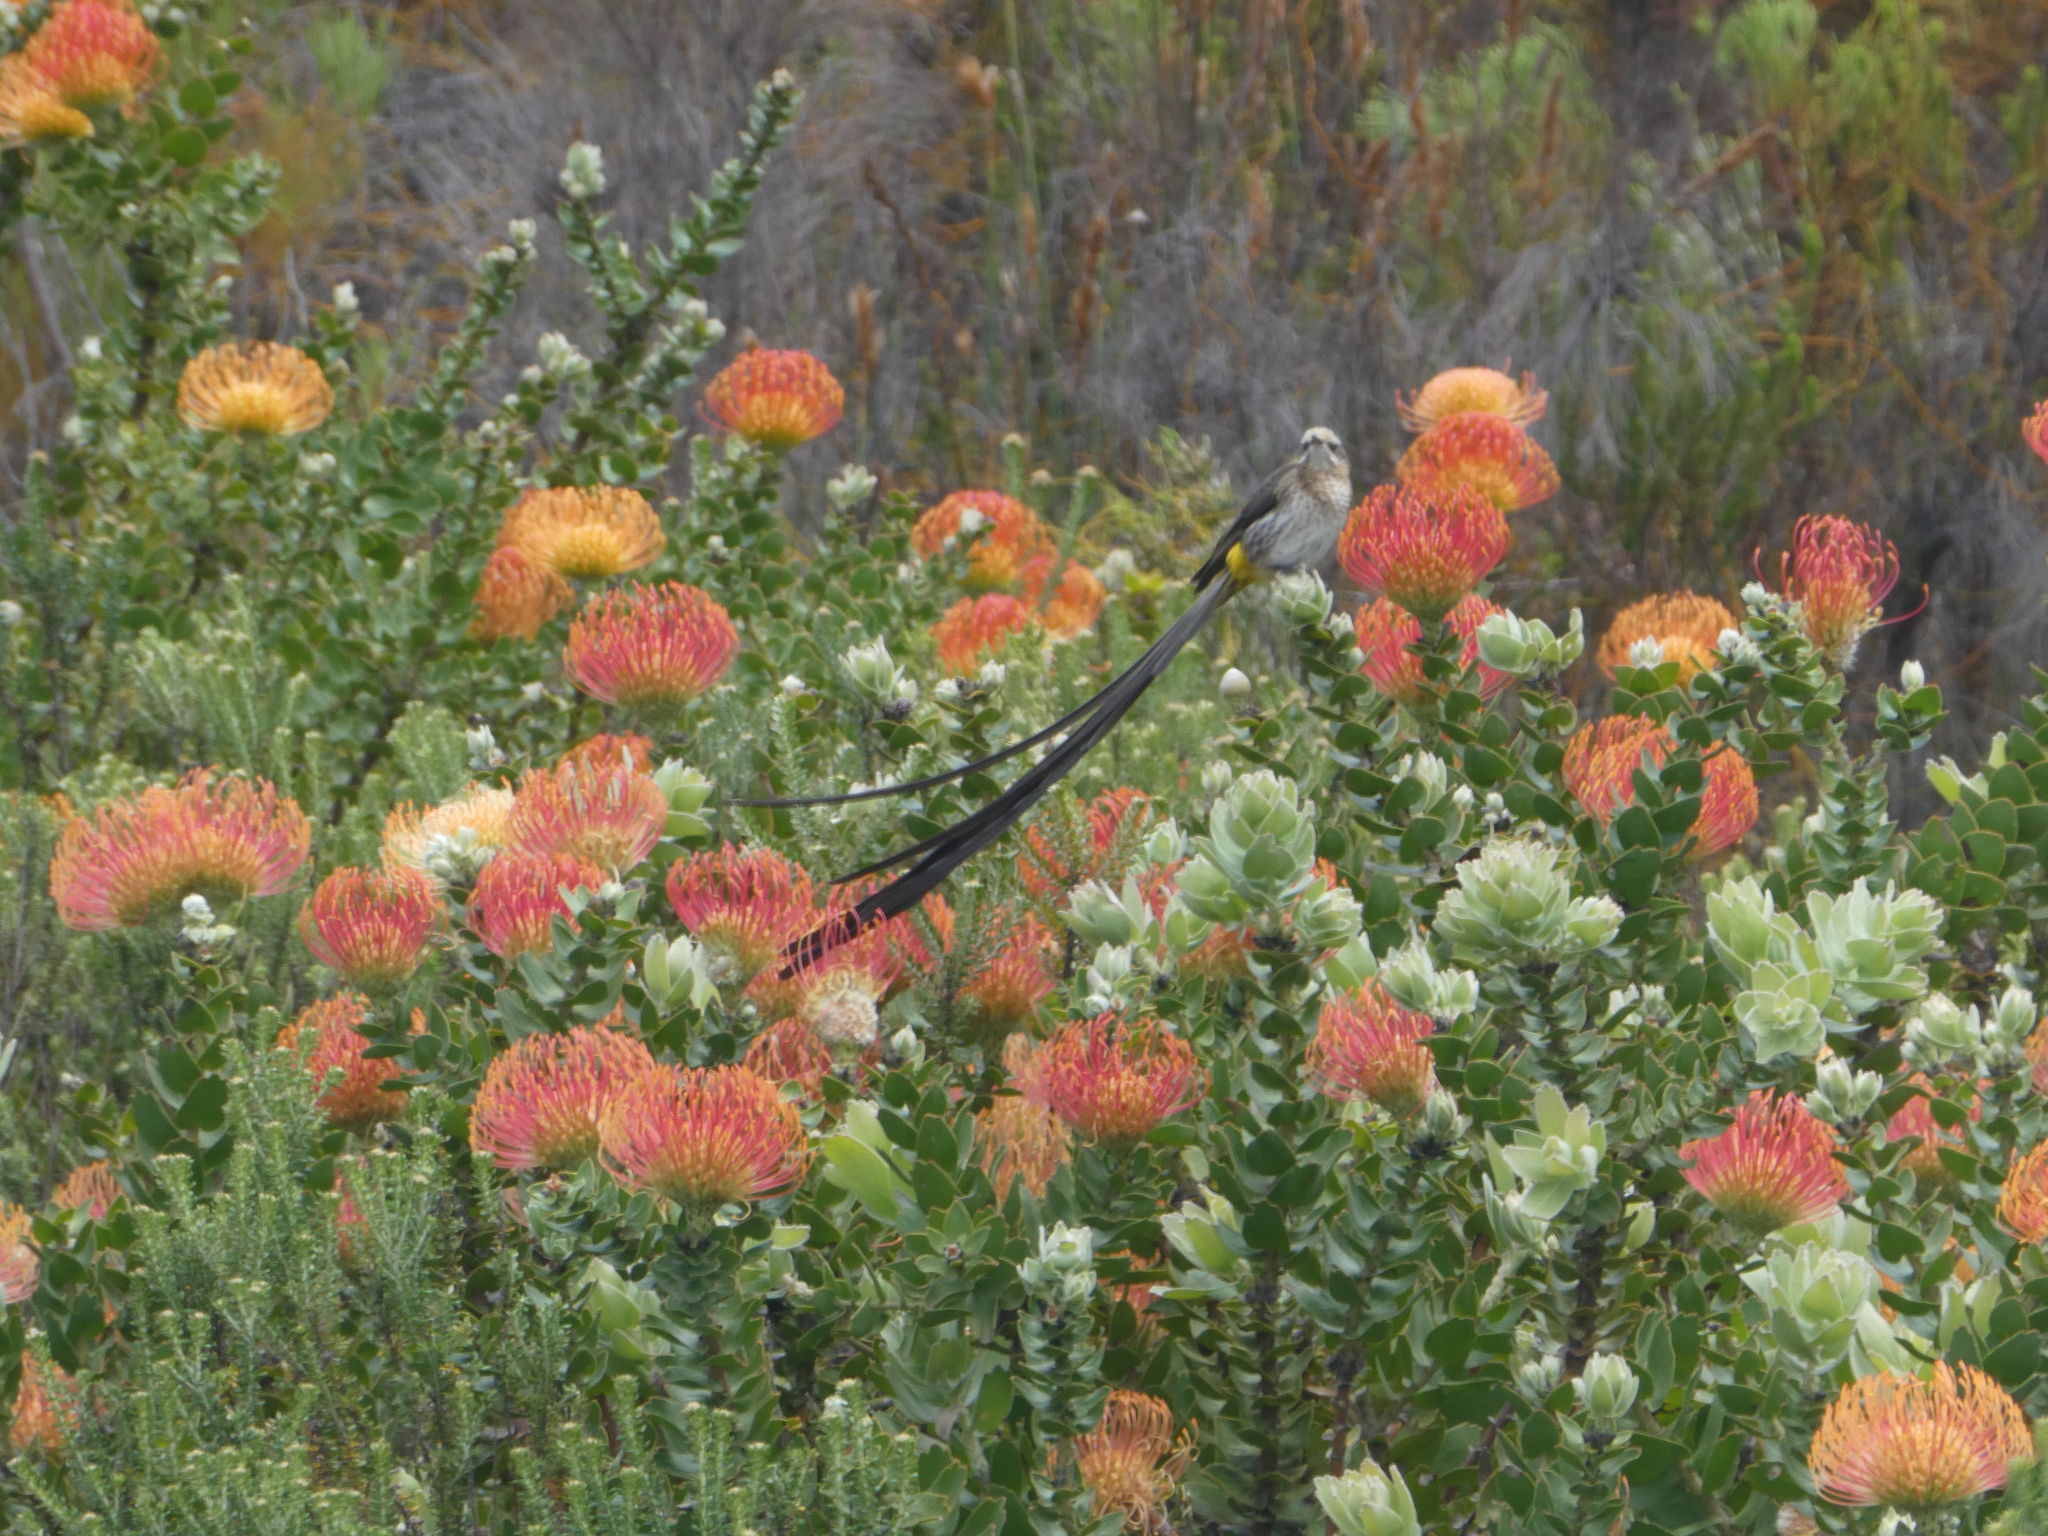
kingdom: Plantae
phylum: Tracheophyta
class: Magnoliopsida
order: Proteales
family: Proteaceae
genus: Leucospermum
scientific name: Leucospermum cordifolium
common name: Red pincushion-protea
